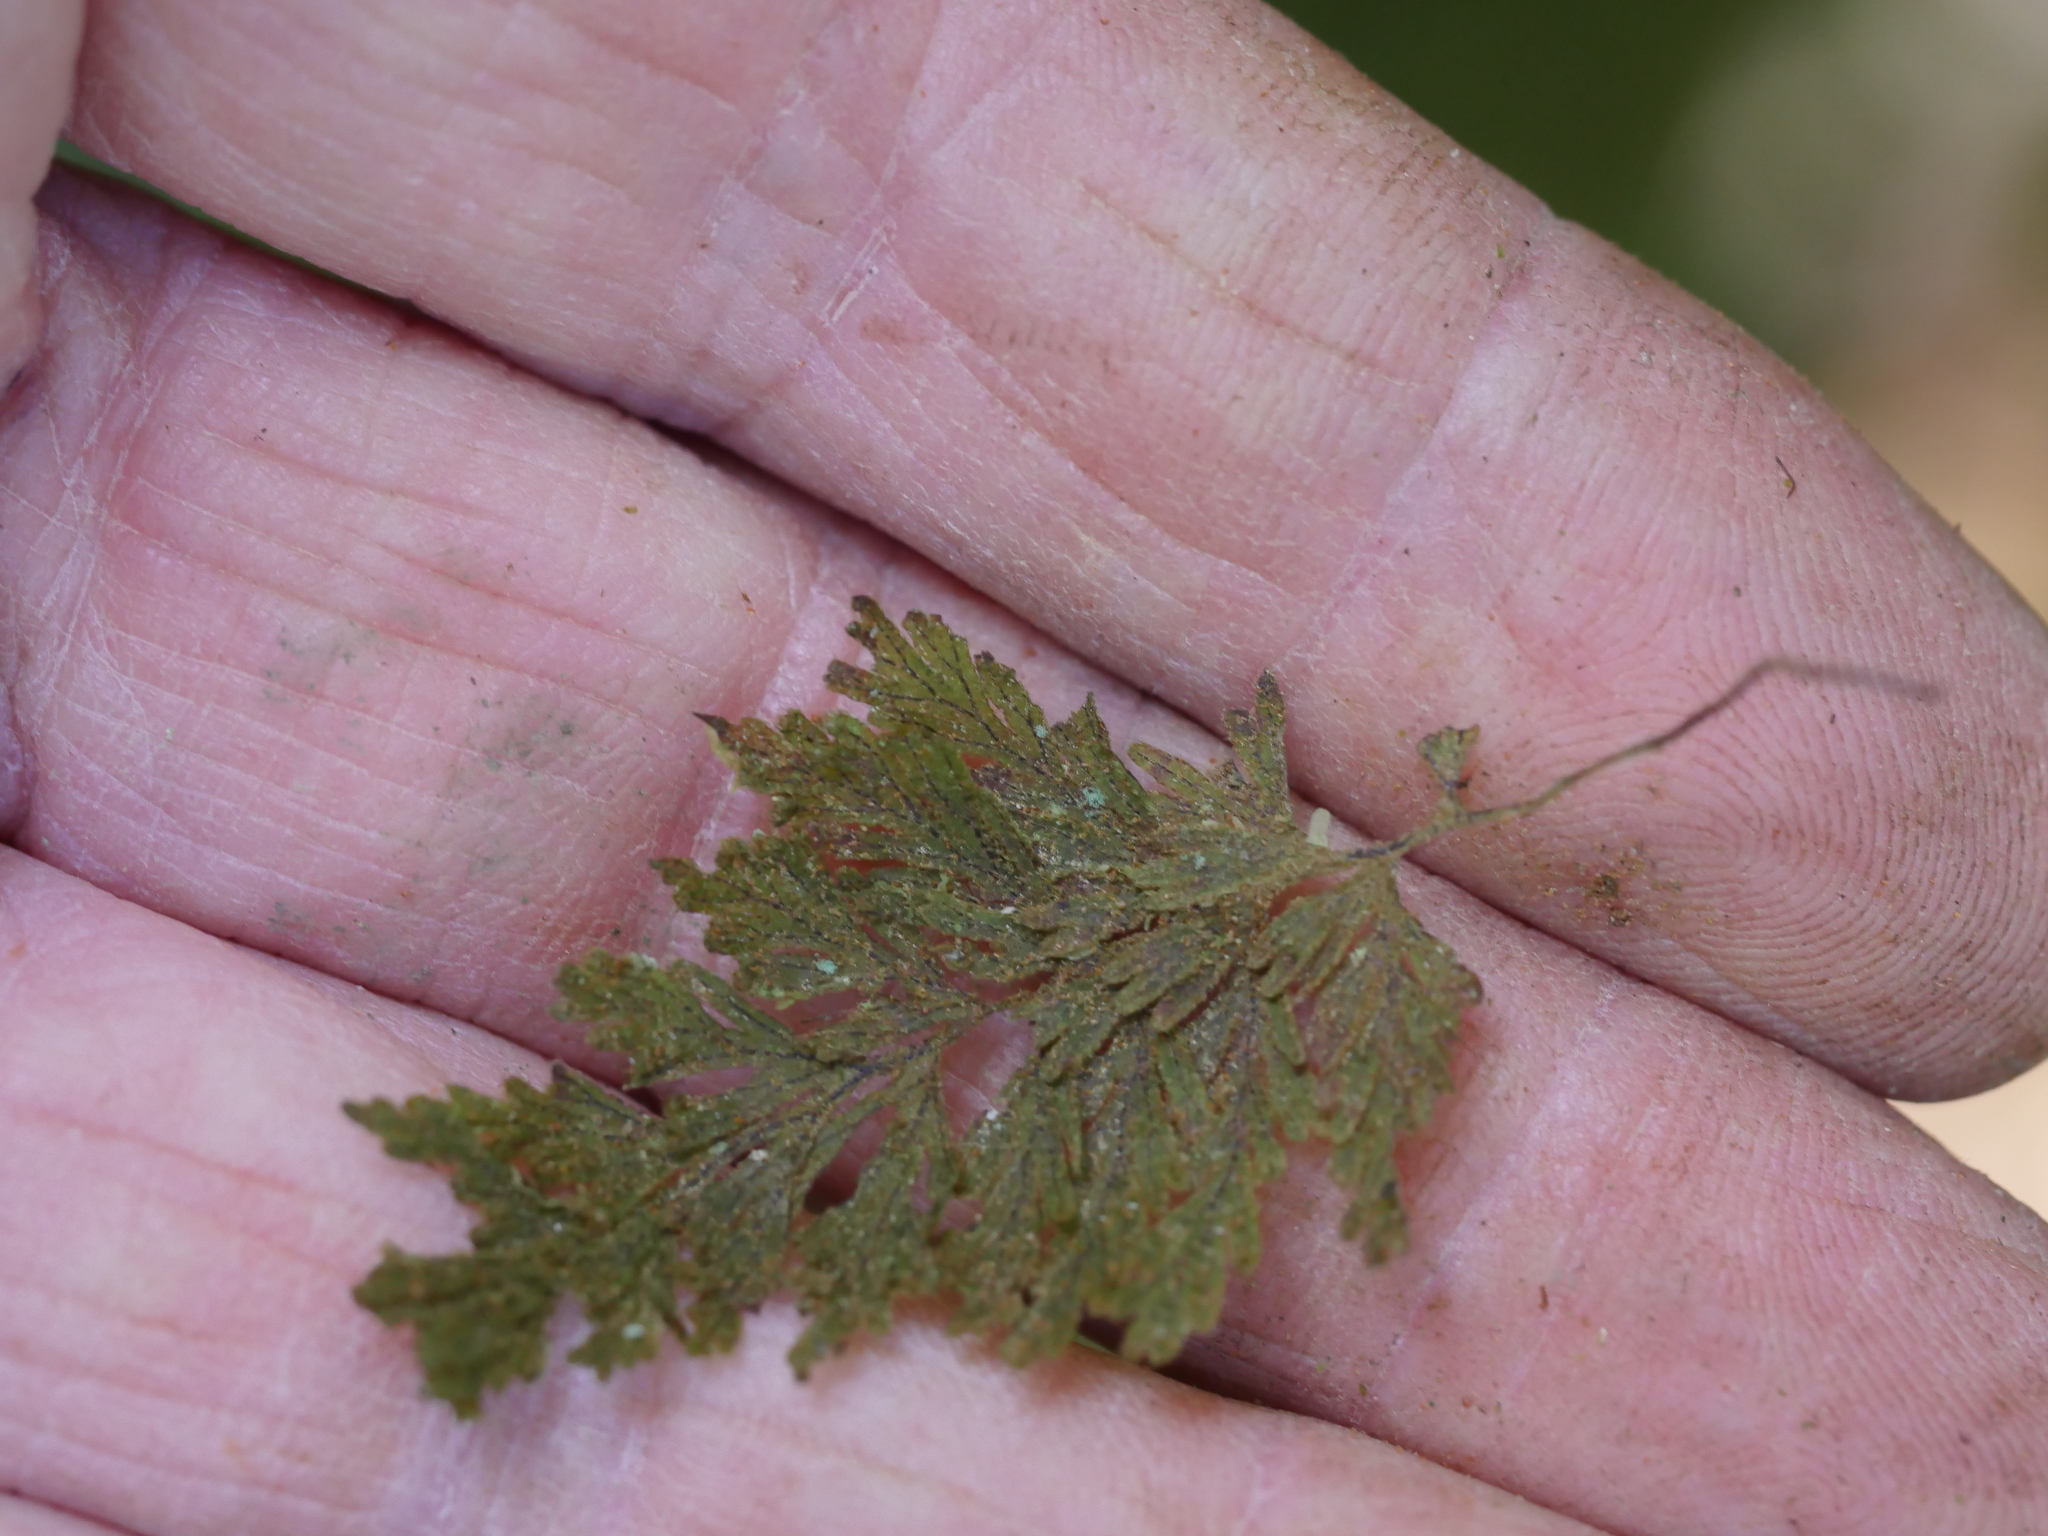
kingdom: Plantae
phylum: Tracheophyta
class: Polypodiopsida
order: Hymenophyllales
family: Hymenophyllaceae
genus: Hymenophyllum
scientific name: Hymenophyllum frankliniae
